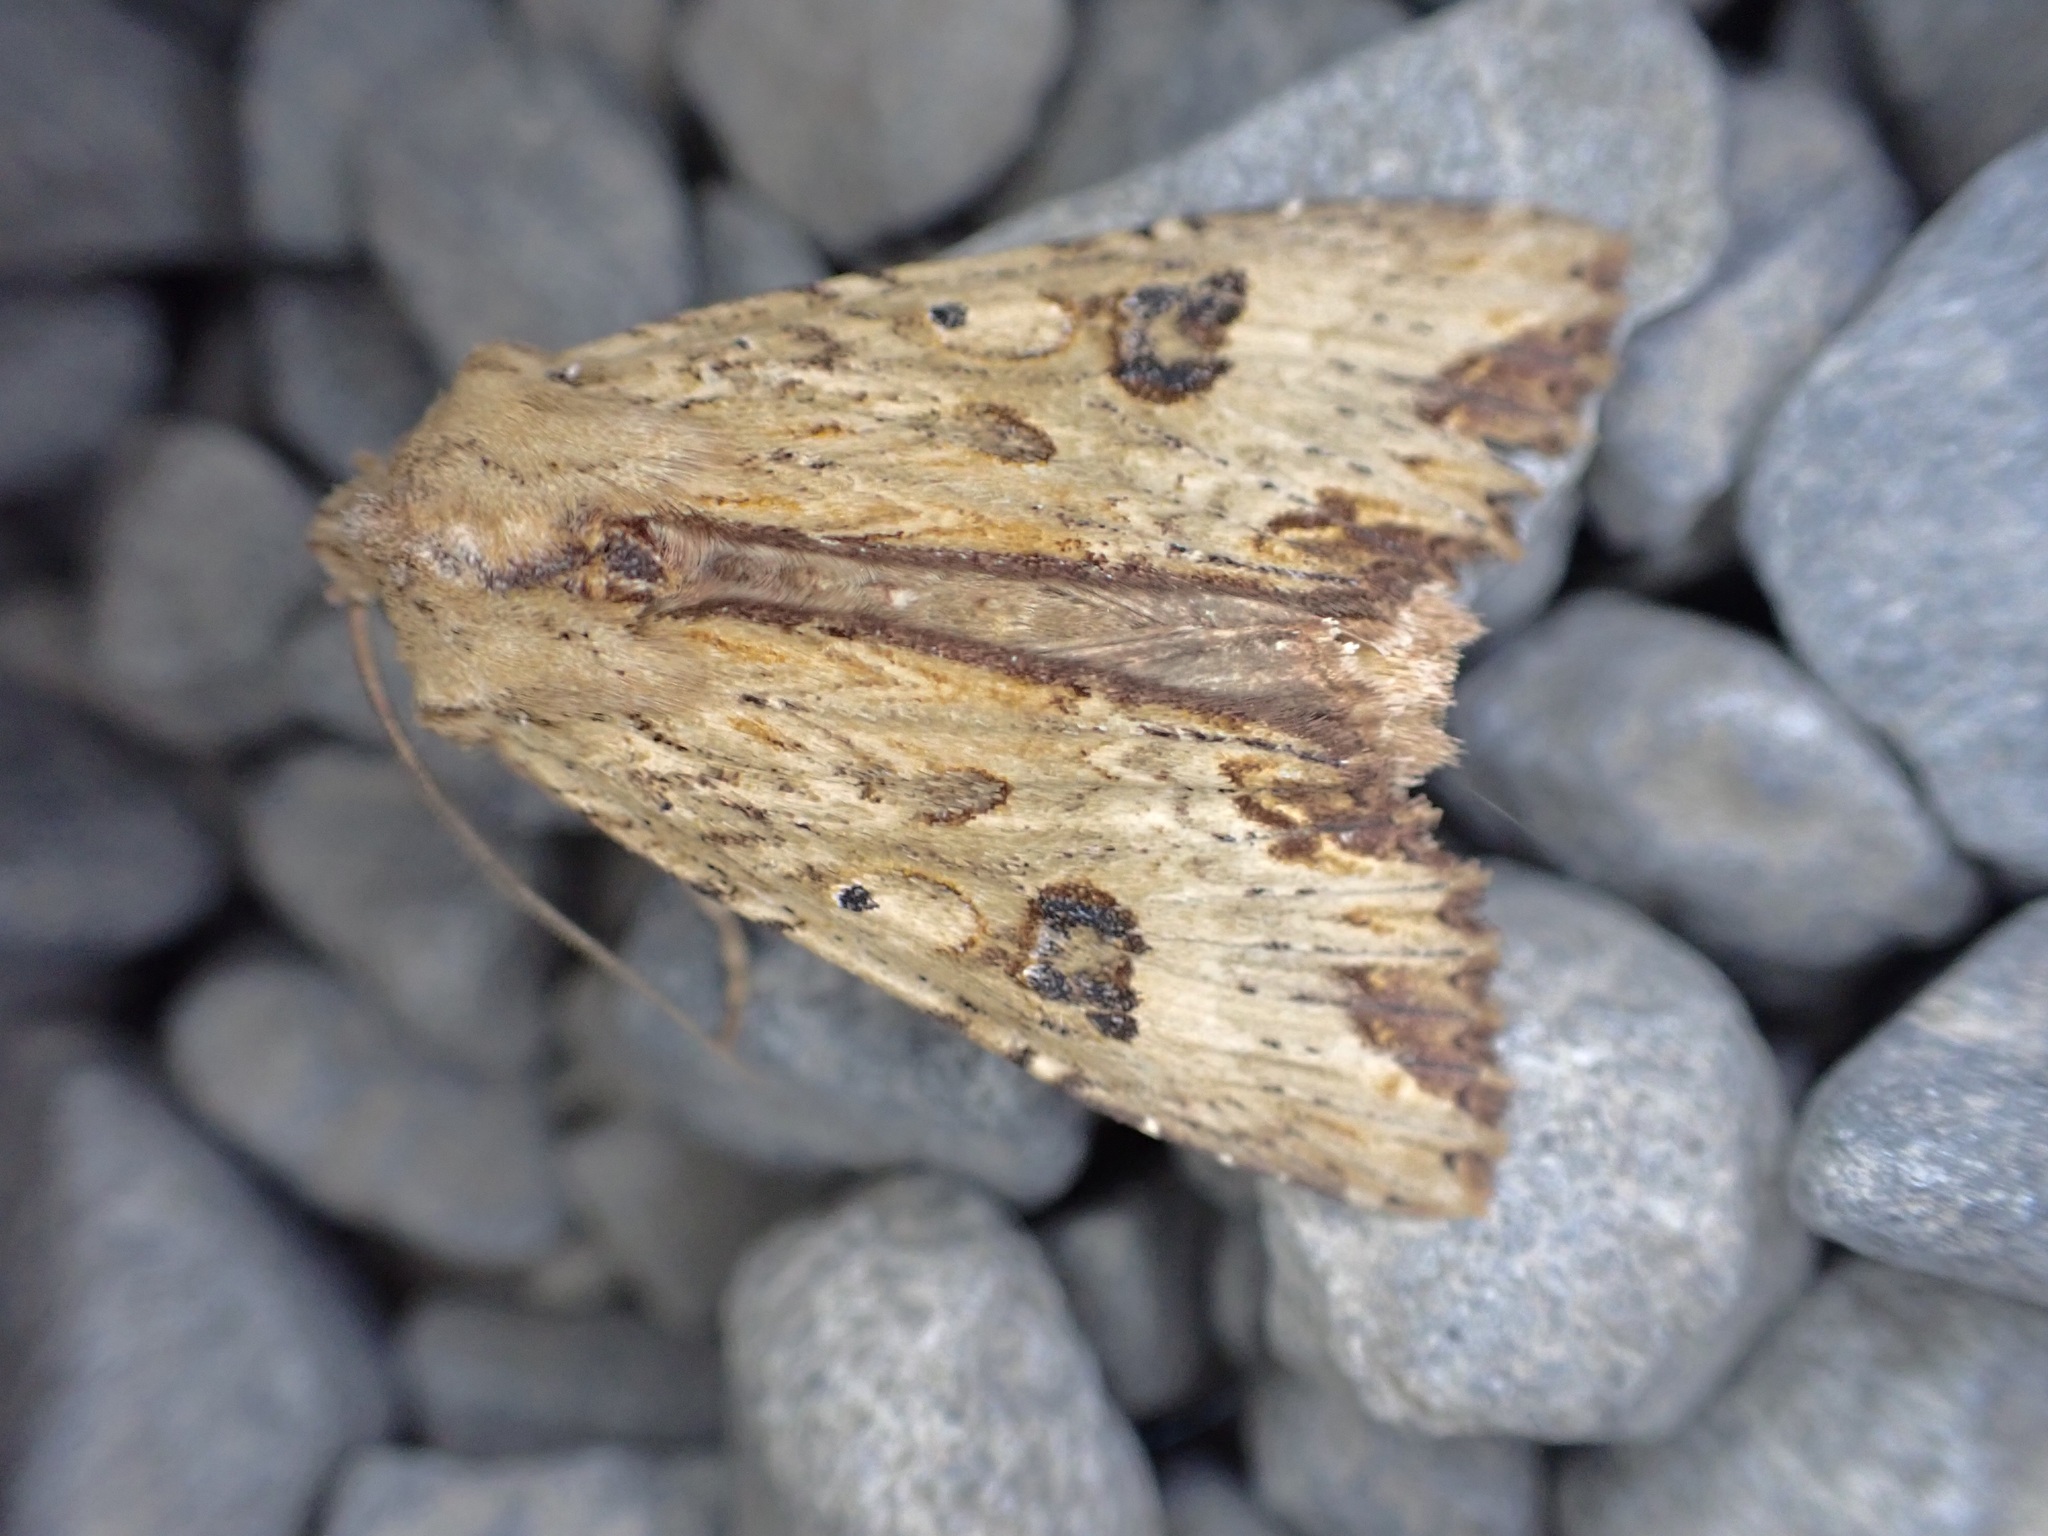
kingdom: Animalia
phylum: Arthropoda
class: Insecta
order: Lepidoptera
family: Noctuidae
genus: Ichneutica
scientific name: Ichneutica
